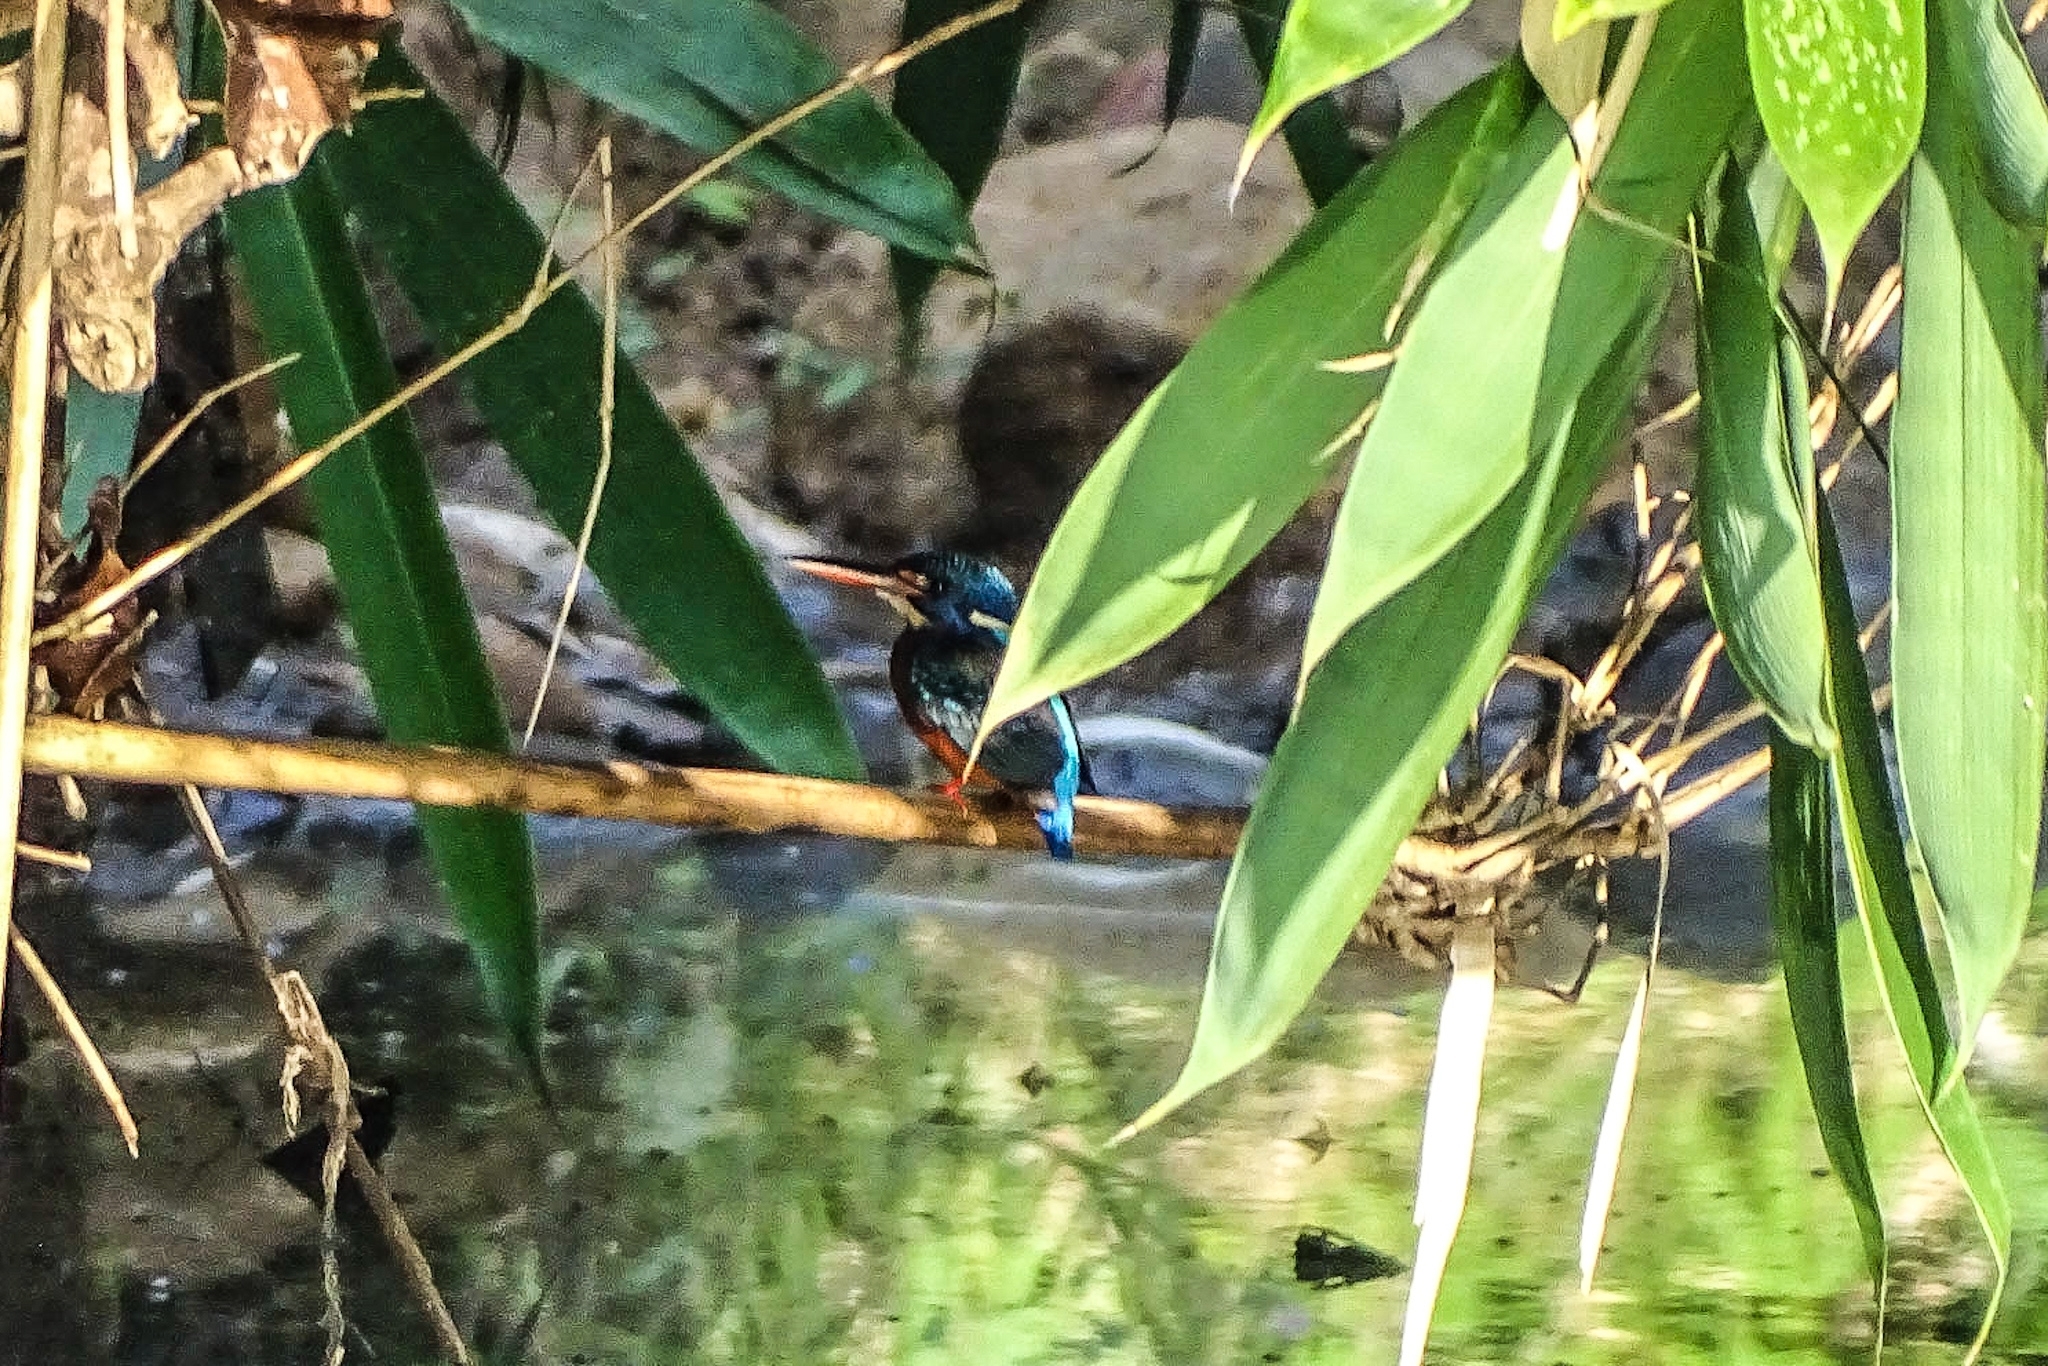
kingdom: Animalia
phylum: Chordata
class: Aves
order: Coraciiformes
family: Alcedinidae
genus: Alcedo
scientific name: Alcedo meninting
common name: Blue-eared kingfisher
